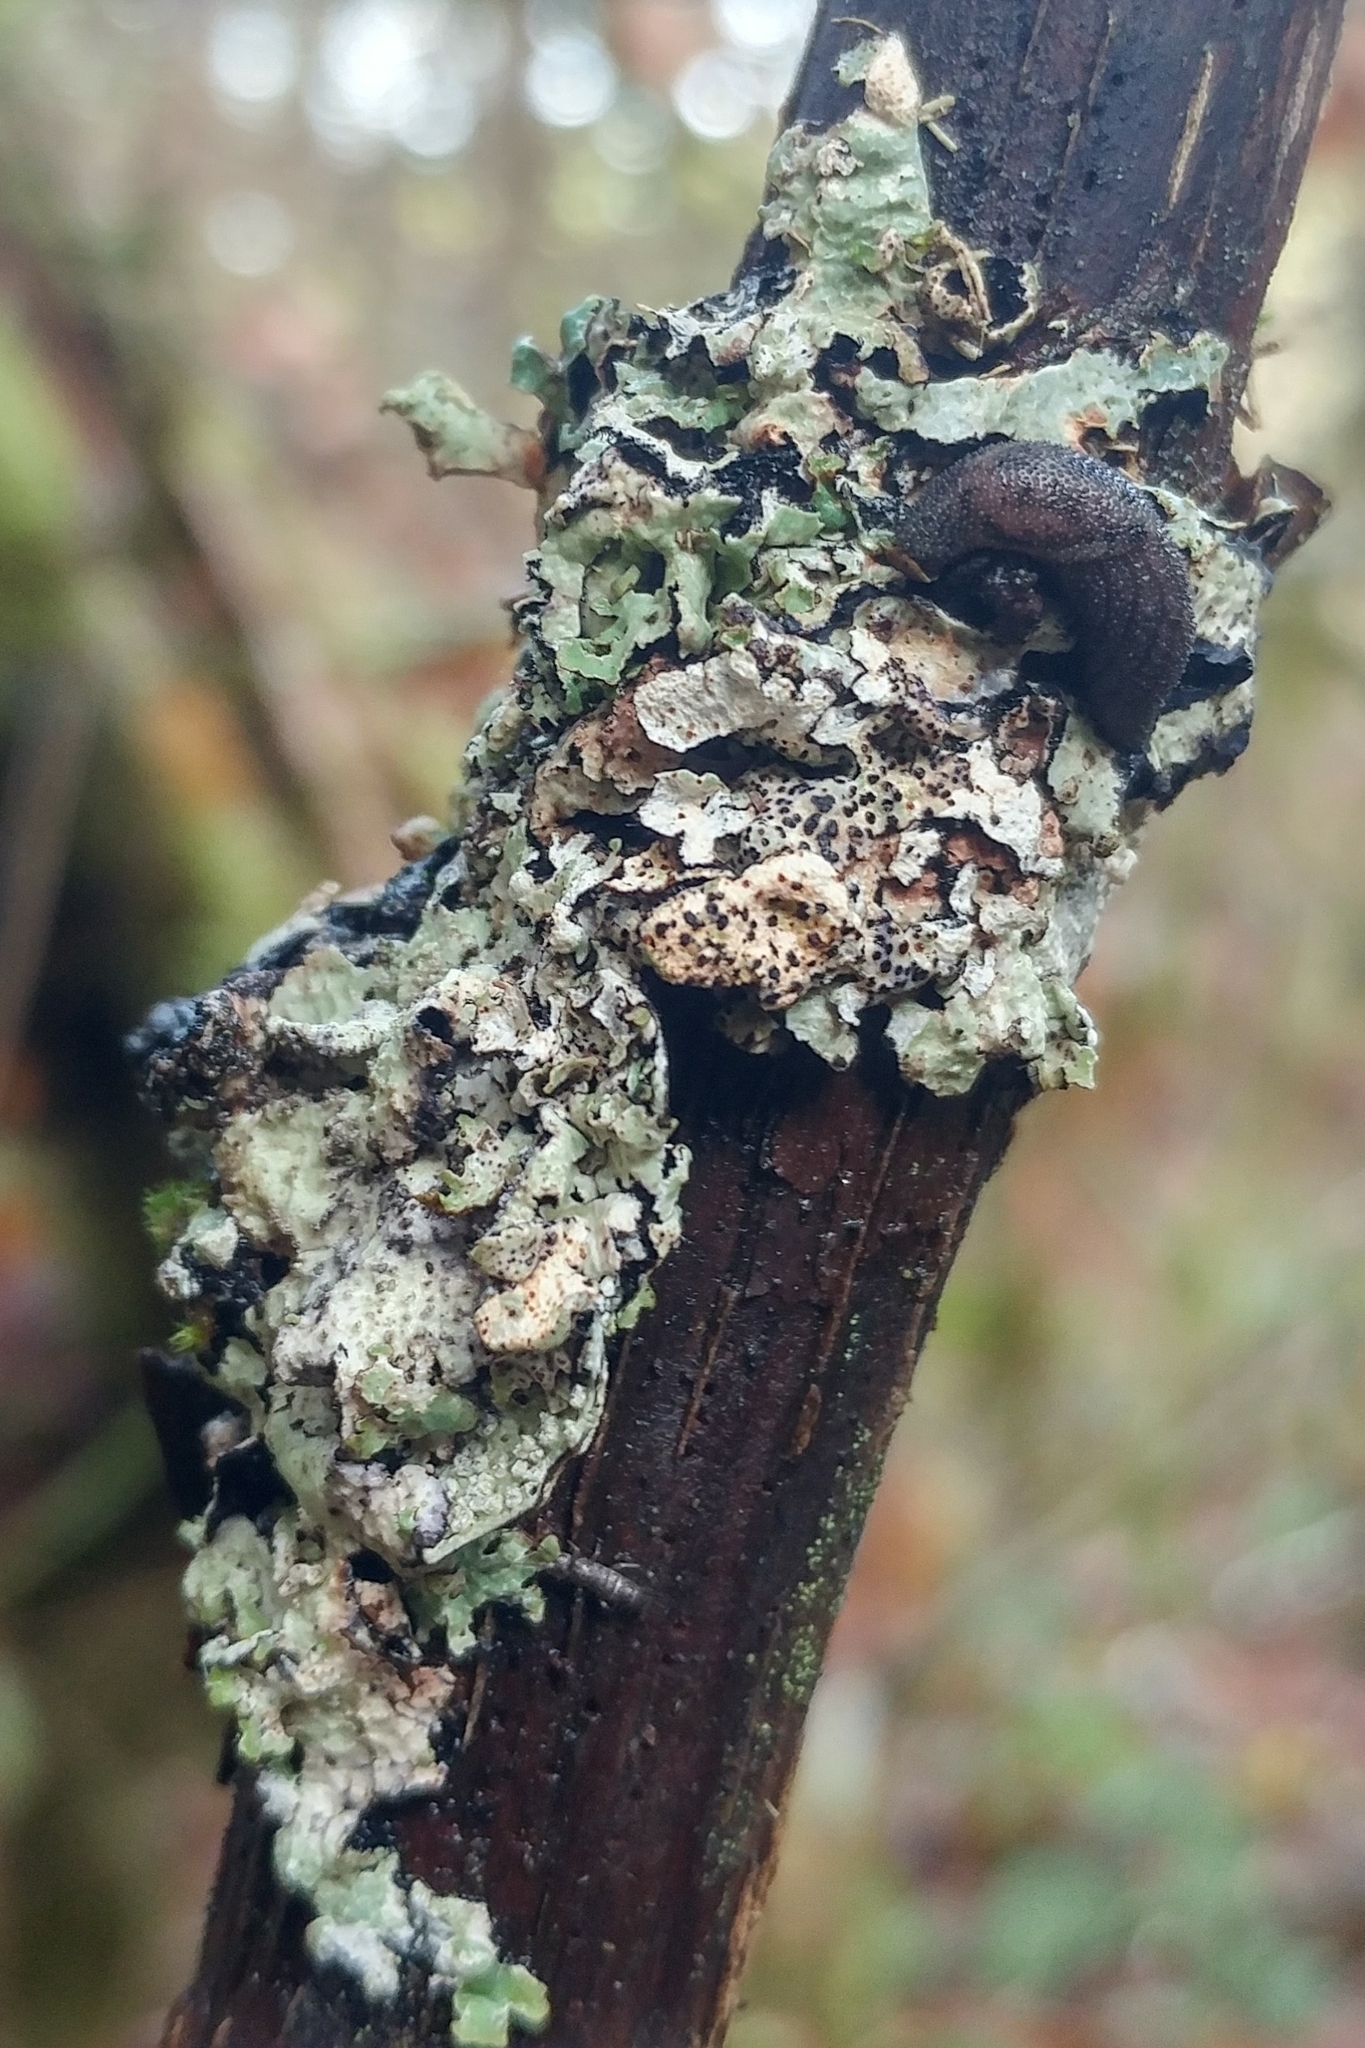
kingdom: Animalia
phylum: Mollusca
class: Gastropoda
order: Stylommatophora
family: Ariolimacidae
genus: Prophysaon
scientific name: Prophysaon dubium
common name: Papillose taildropper
